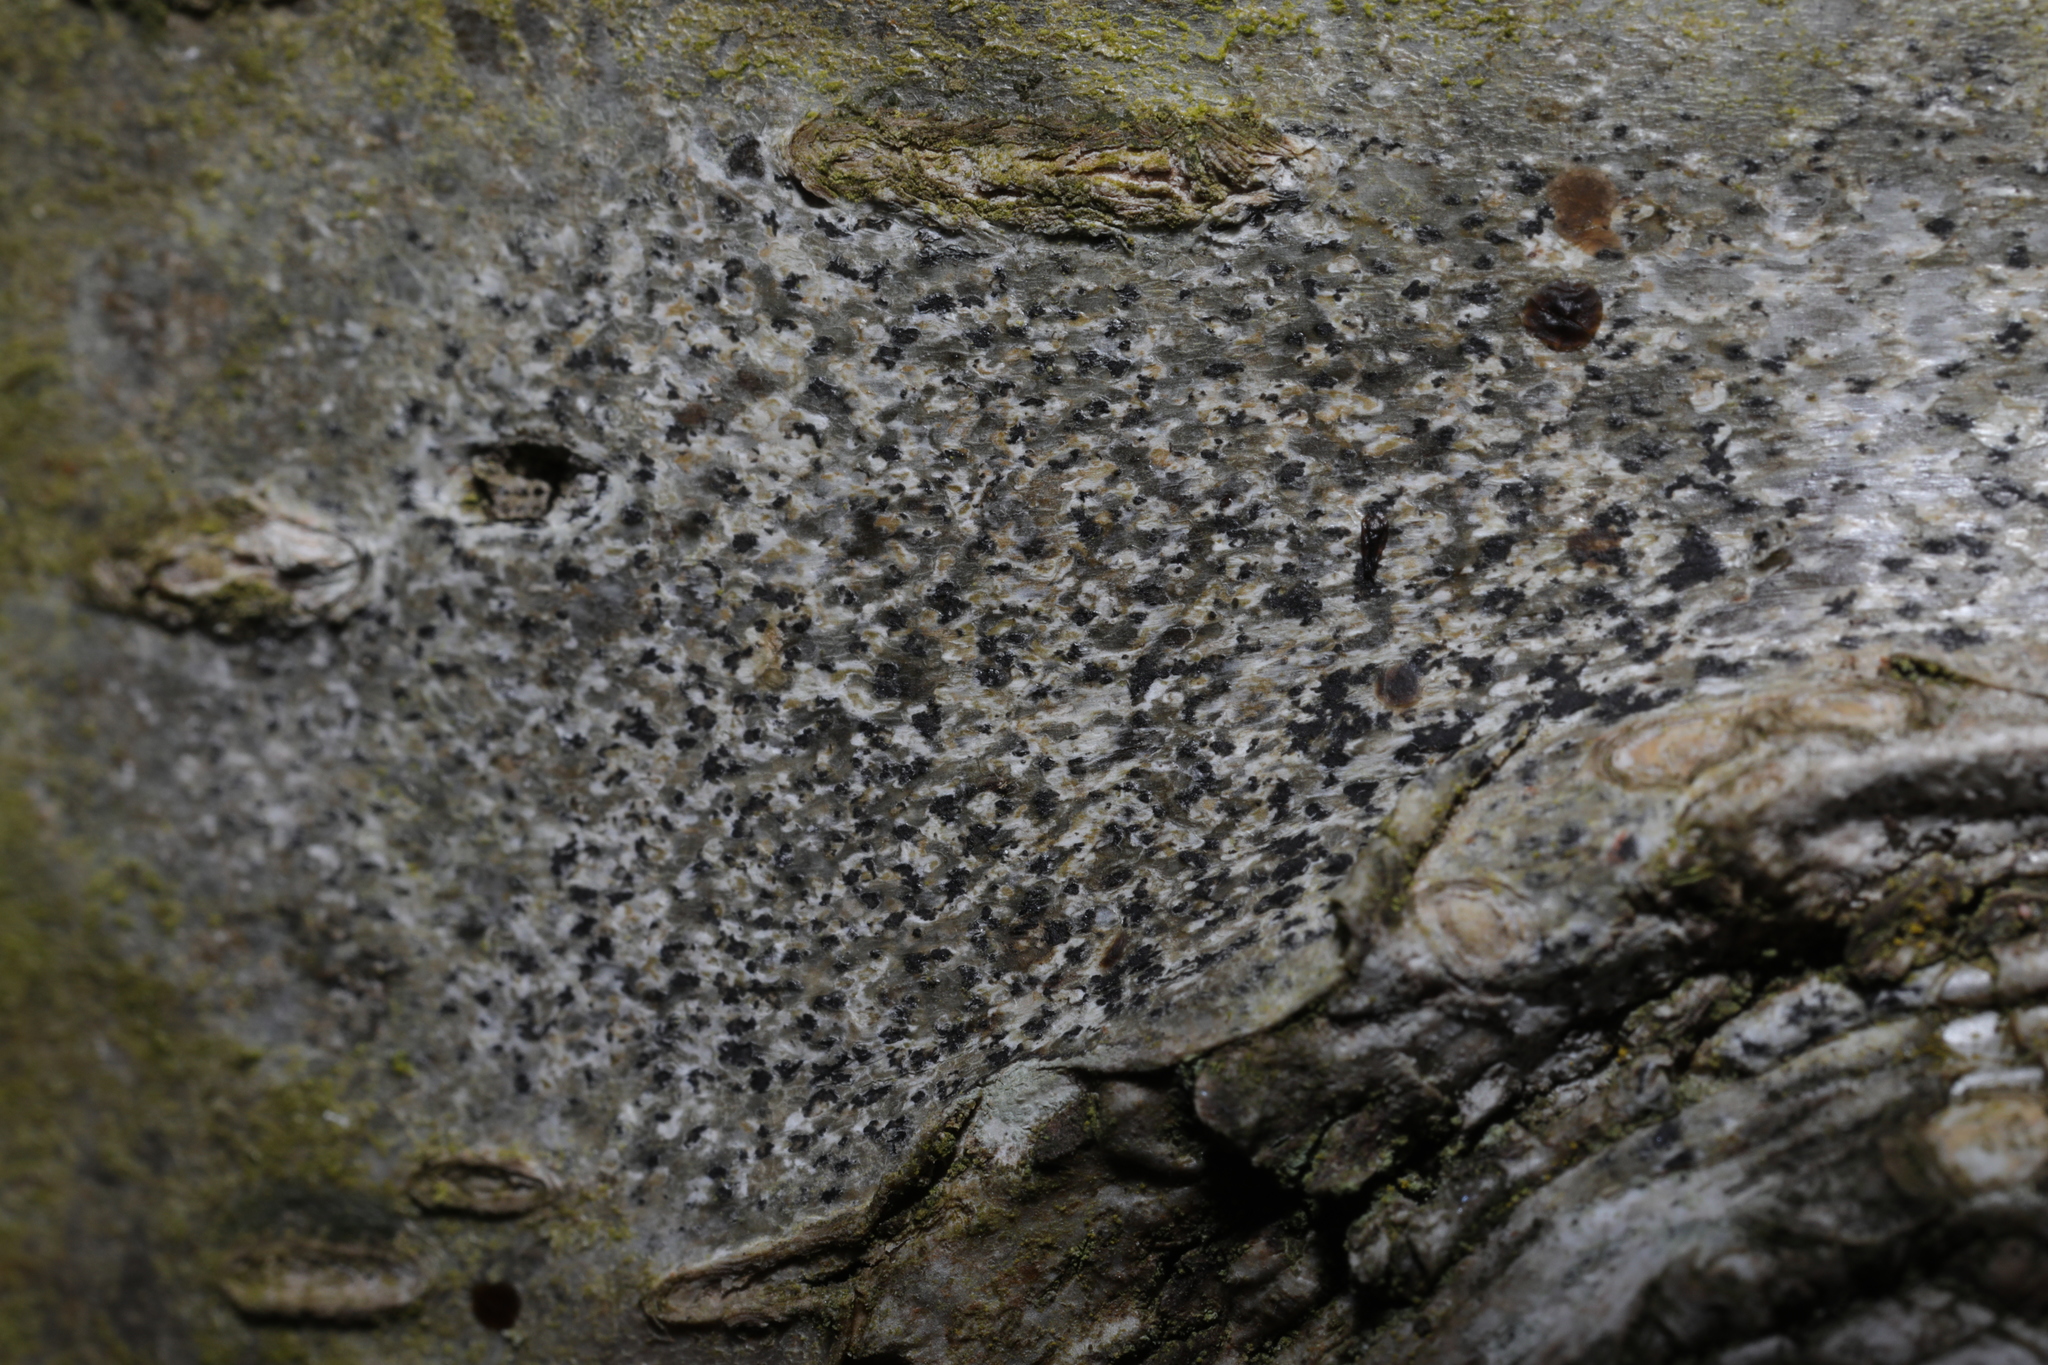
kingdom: Fungi
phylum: Ascomycota
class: Arthoniomycetes
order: Arthoniales
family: Arthoniaceae
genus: Arthonia
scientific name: Arthonia radiata
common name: Asterisk lichen
